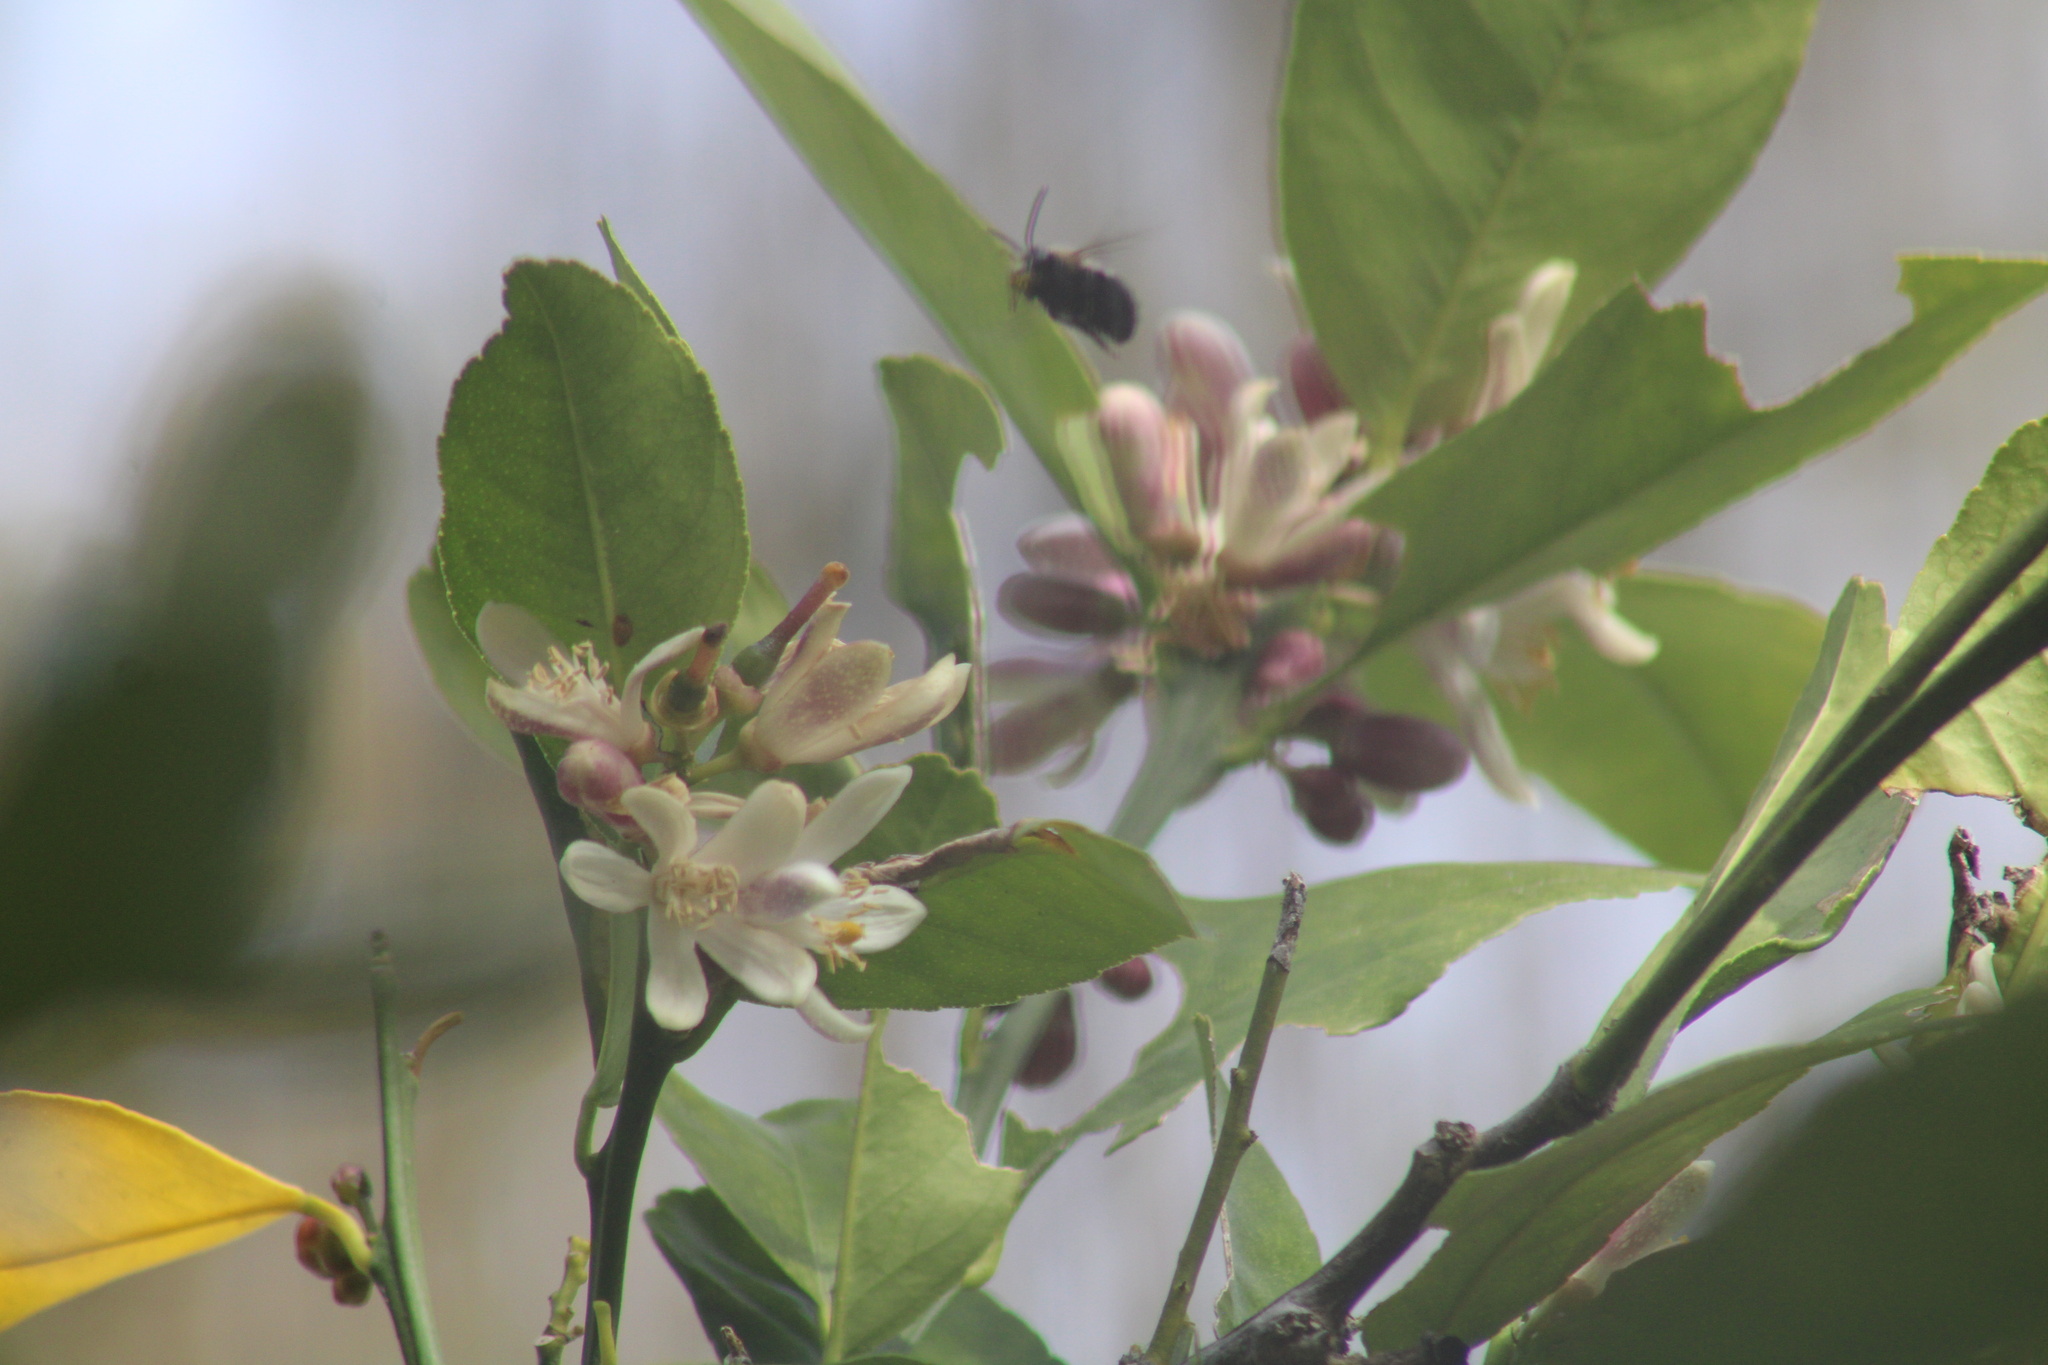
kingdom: Animalia
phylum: Arthropoda
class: Insecta
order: Hymenoptera
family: Apidae
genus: Habropoda
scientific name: Habropoda laboriosa
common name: Southeastern blueberry bee
